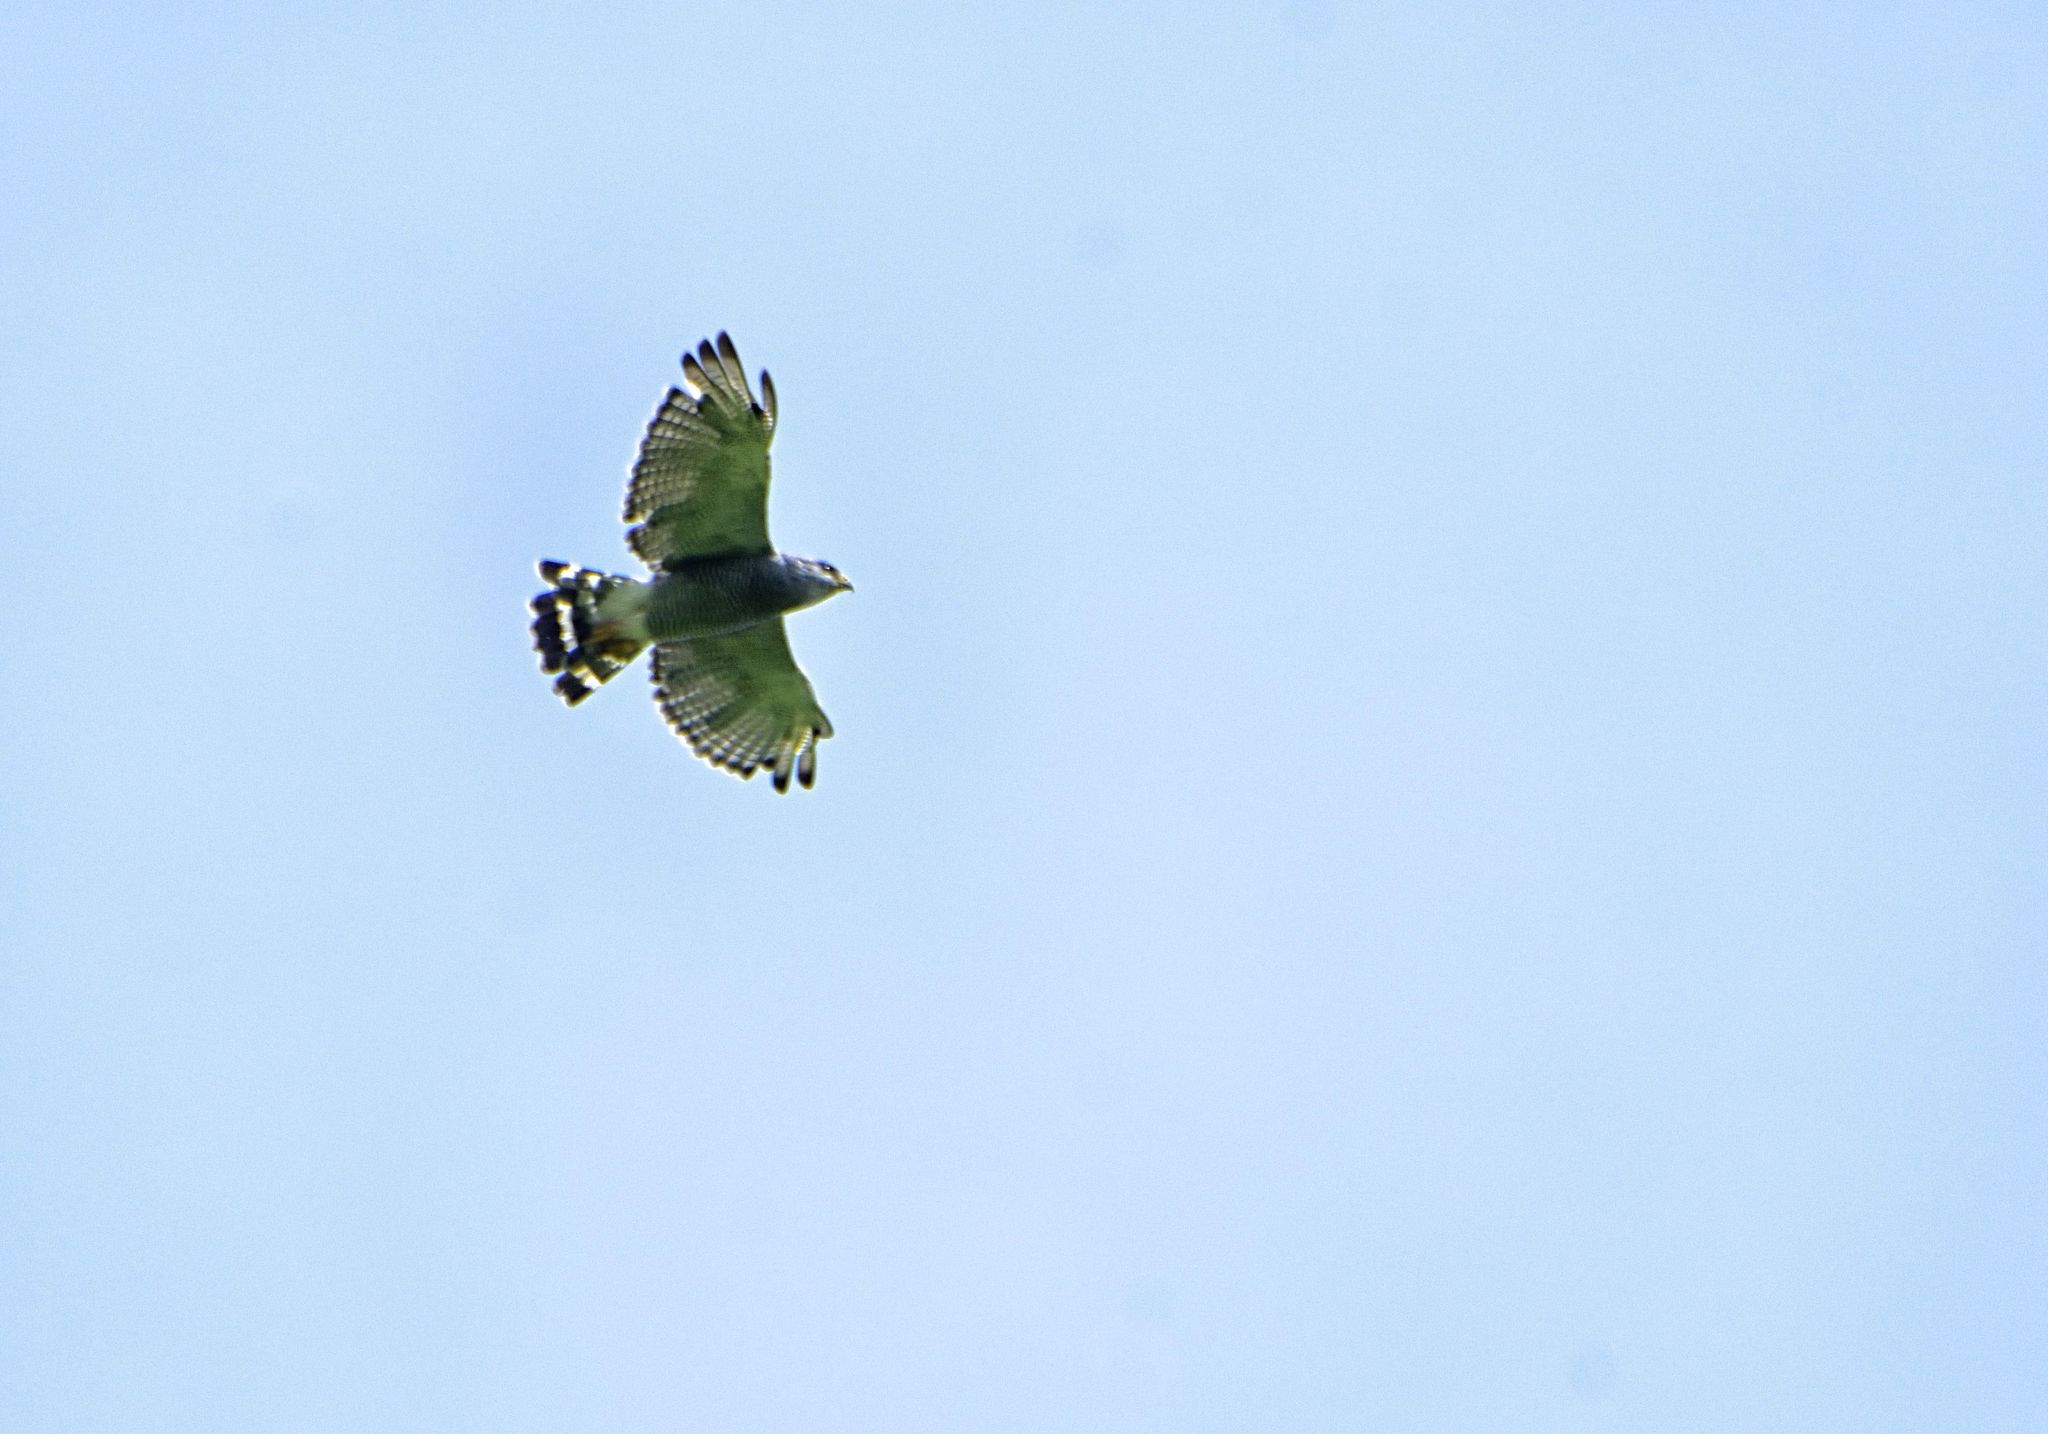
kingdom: Animalia
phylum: Chordata
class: Aves
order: Accipitriformes
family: Accipitridae
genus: Buteo
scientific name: Buteo nitidus
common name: Grey-lined hawk
